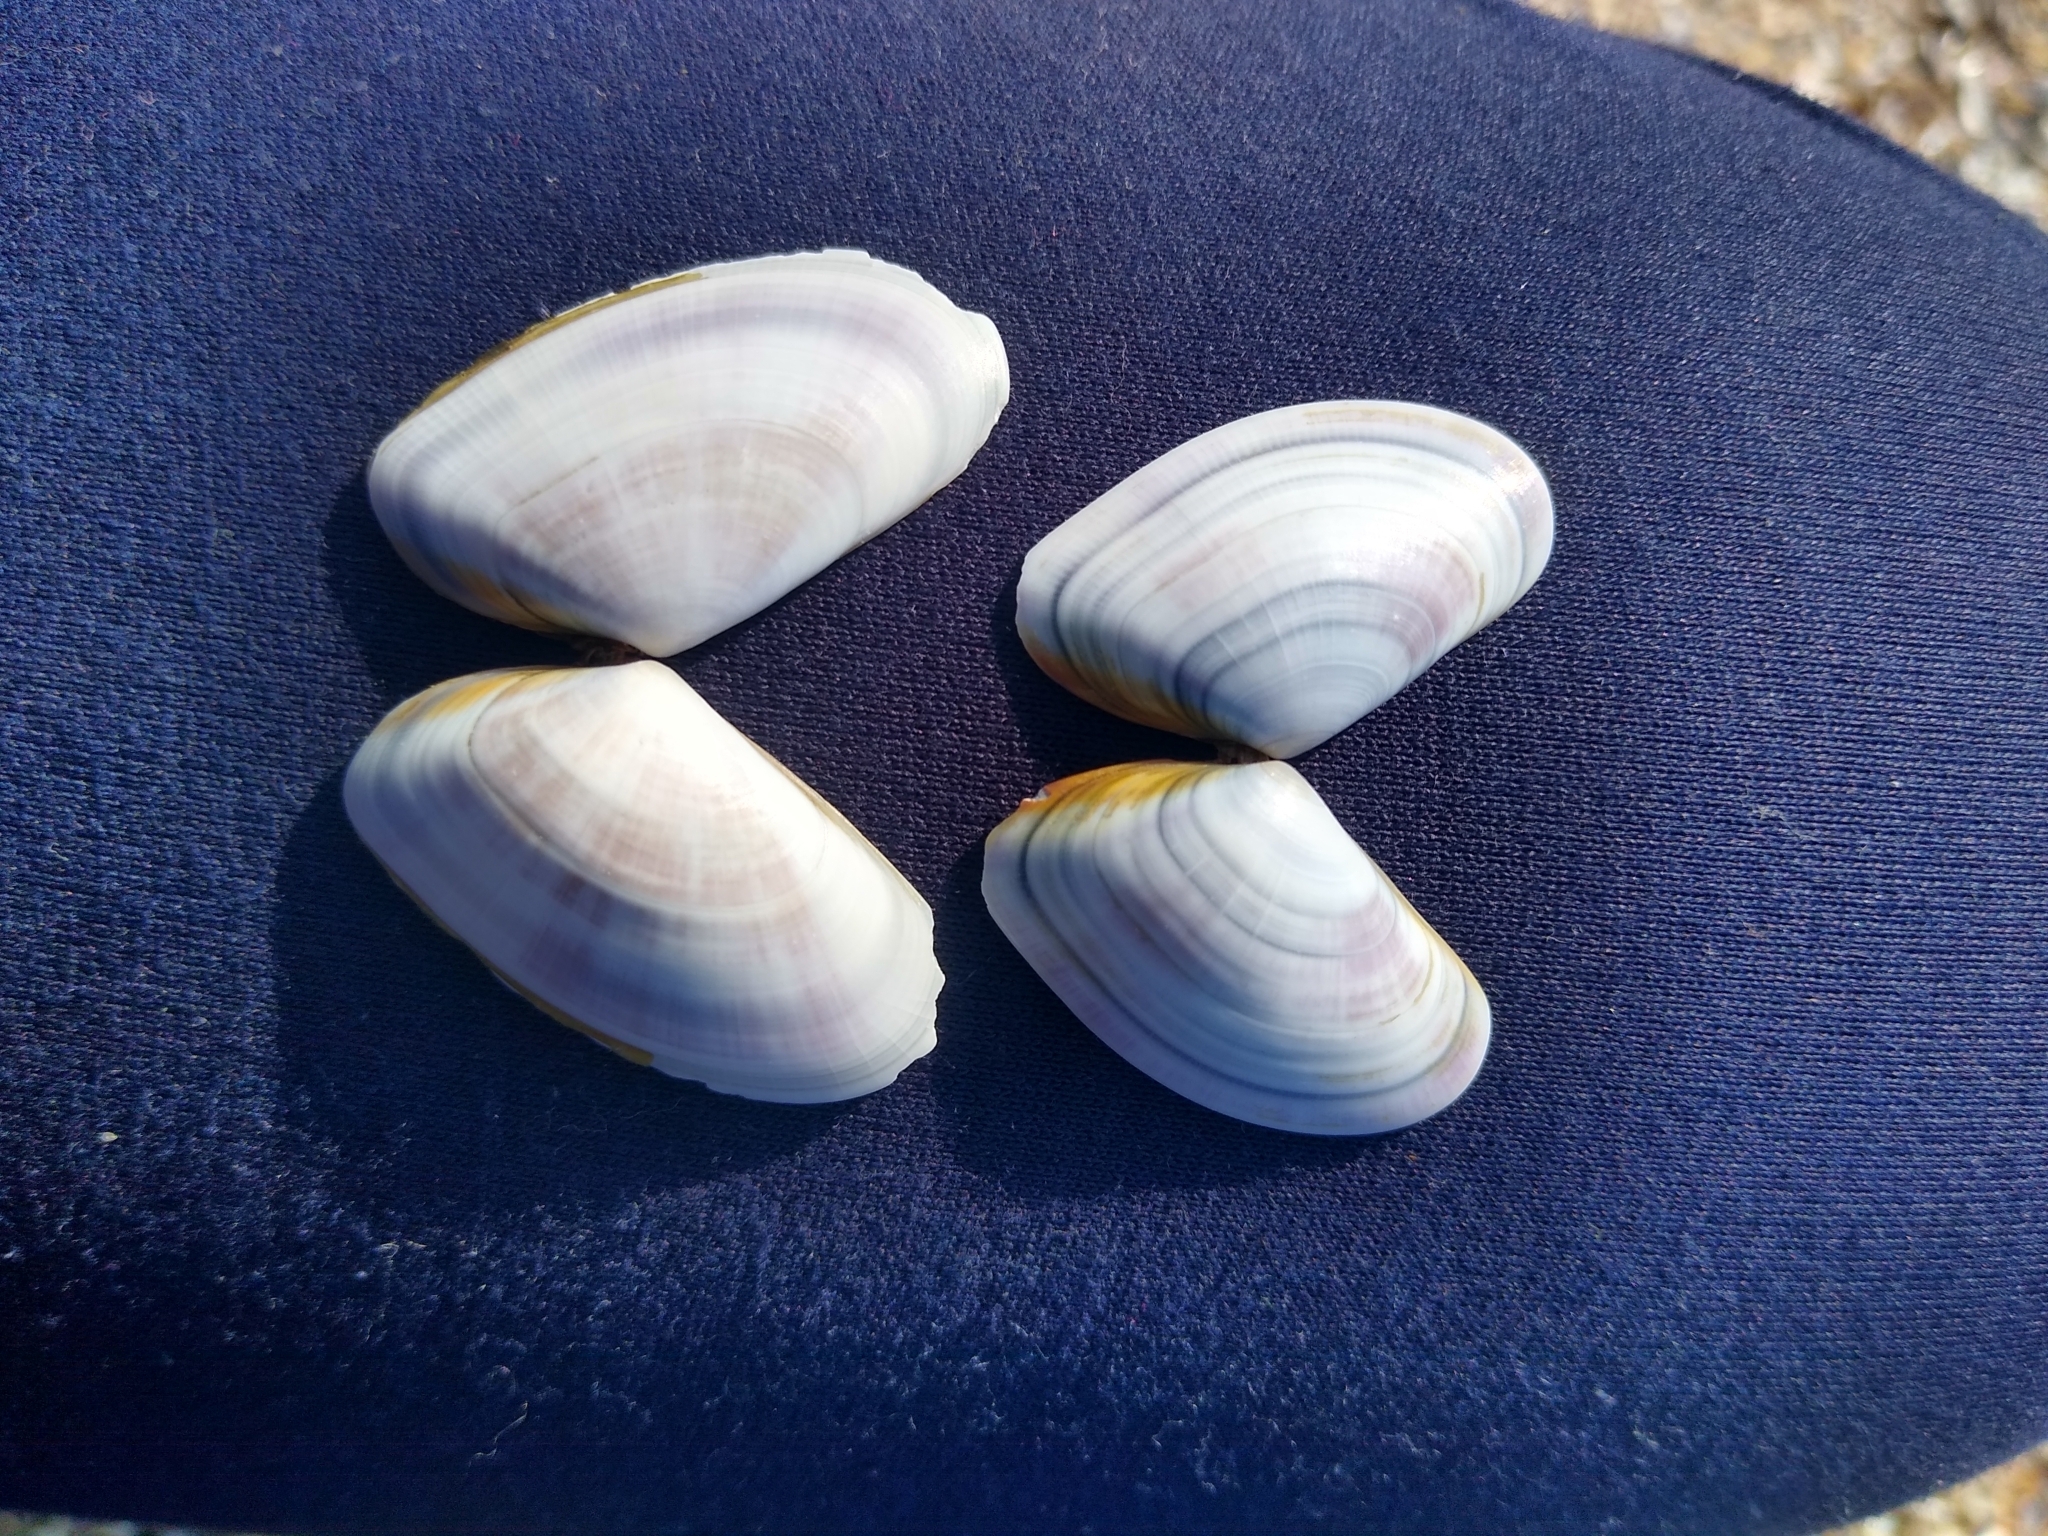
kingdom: Animalia
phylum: Mollusca
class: Bivalvia
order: Cardiida
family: Donacidae
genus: Donax
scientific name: Donax trunculus
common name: Truncate donax
